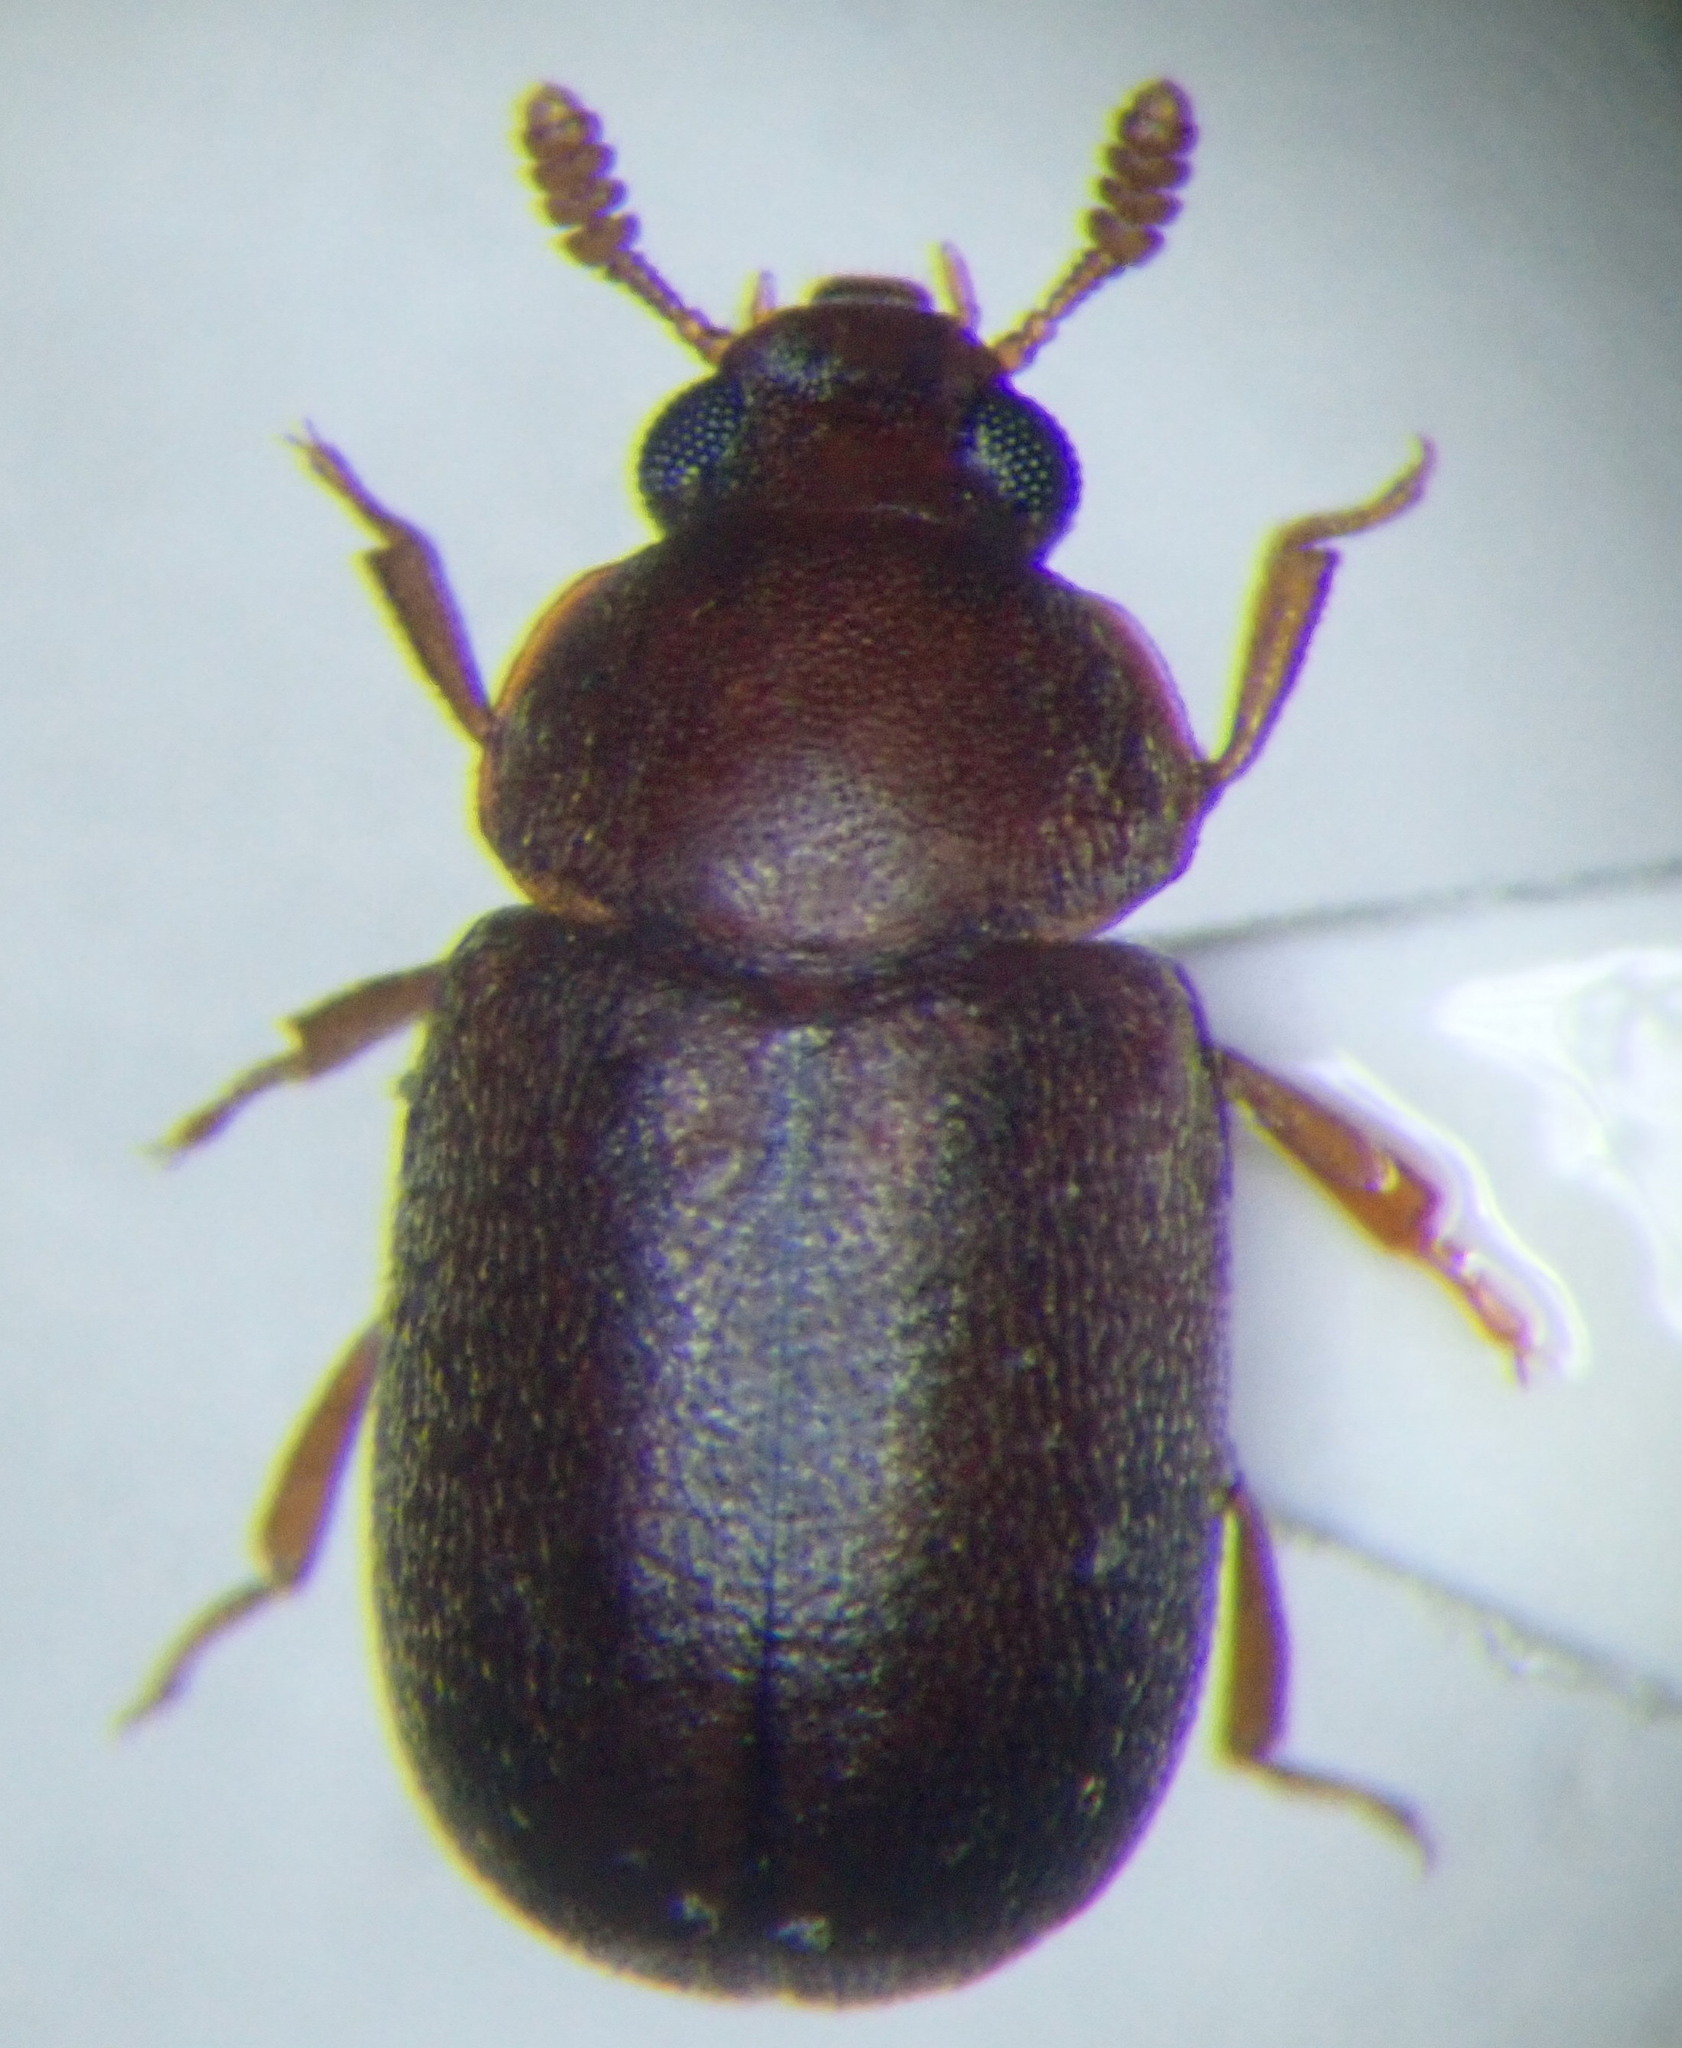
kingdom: Animalia
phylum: Arthropoda
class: Insecta
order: Coleoptera
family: Tenebrionidae
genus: Pentaphyllus
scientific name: Pentaphyllus chrysomeloides
